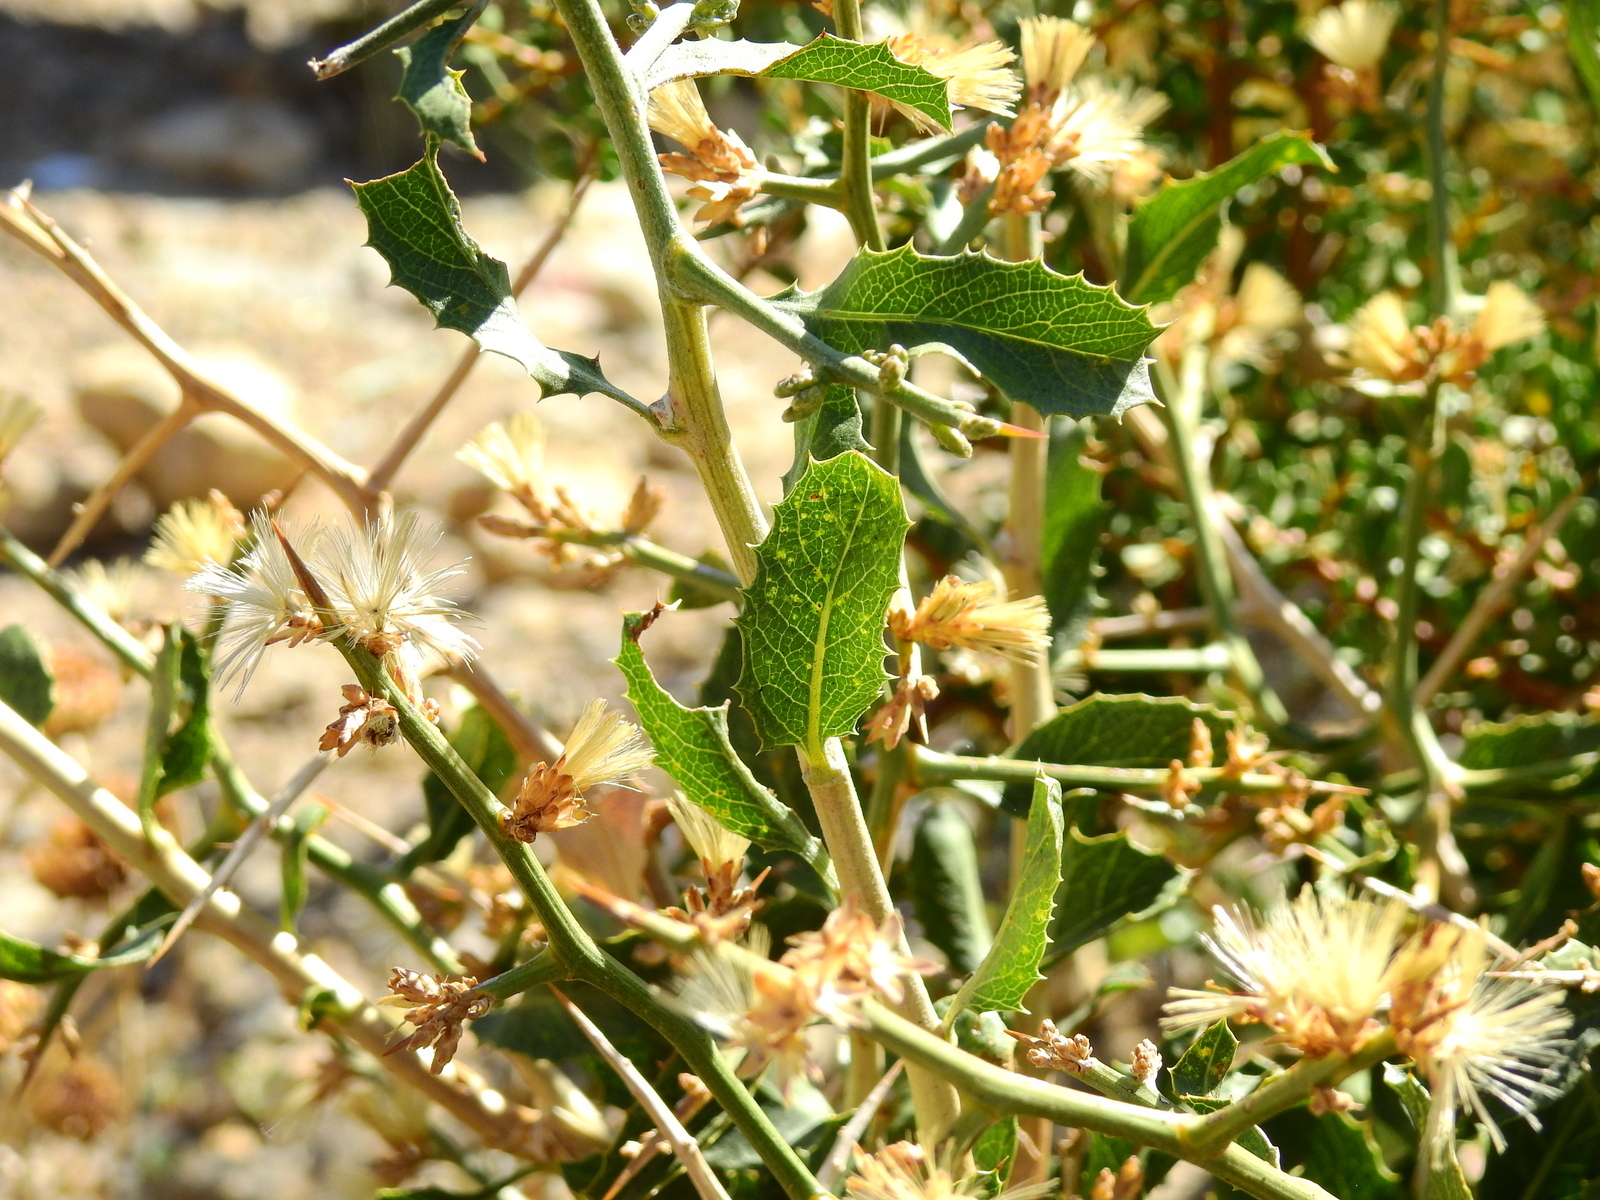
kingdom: Plantae
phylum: Tracheophyta
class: Magnoliopsida
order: Asterales
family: Asteraceae
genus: Proustia
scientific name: Proustia cuneifolia
